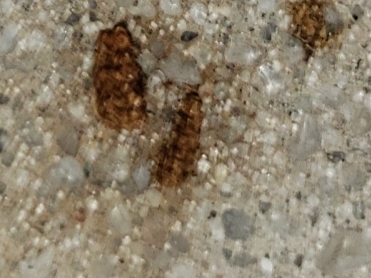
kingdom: Animalia
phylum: Arthropoda
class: Insecta
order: Lepidoptera
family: Saturniidae
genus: Anisota
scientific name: Anisota virginiensis
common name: Pink striped oakworm moth
